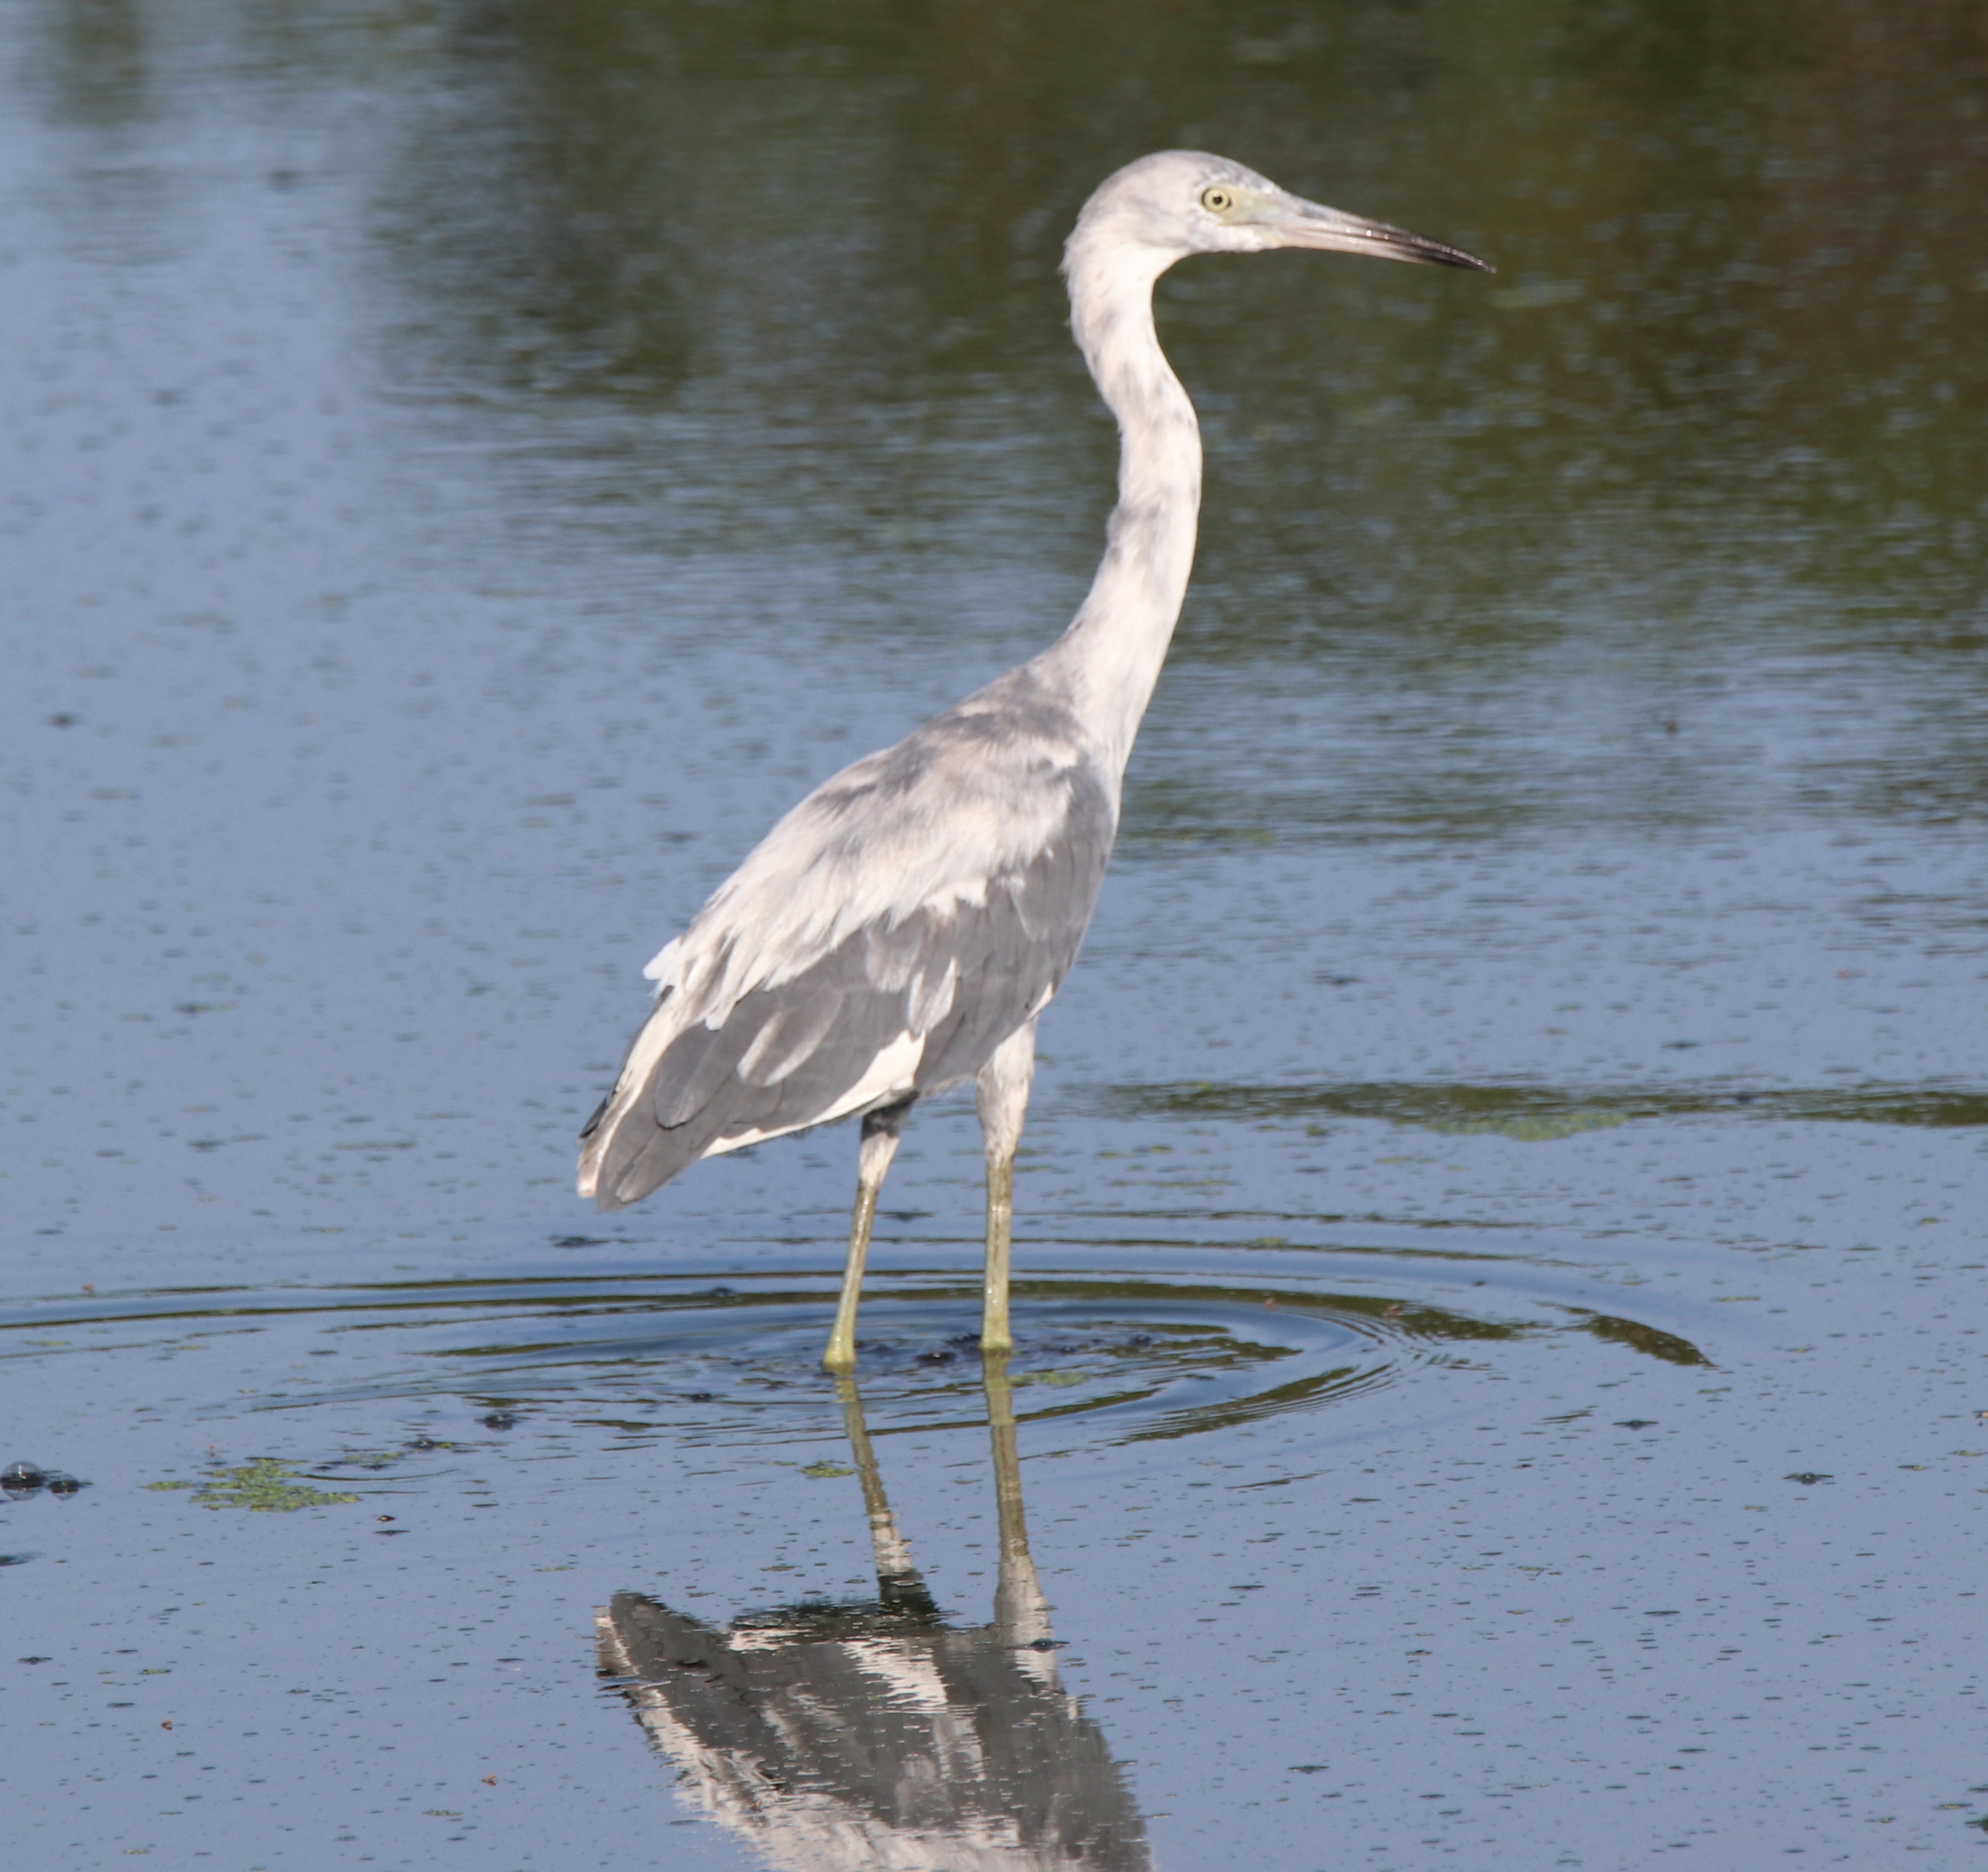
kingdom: Animalia
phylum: Chordata
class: Aves
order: Pelecaniformes
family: Ardeidae
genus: Egretta
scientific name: Egretta caerulea
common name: Little blue heron
